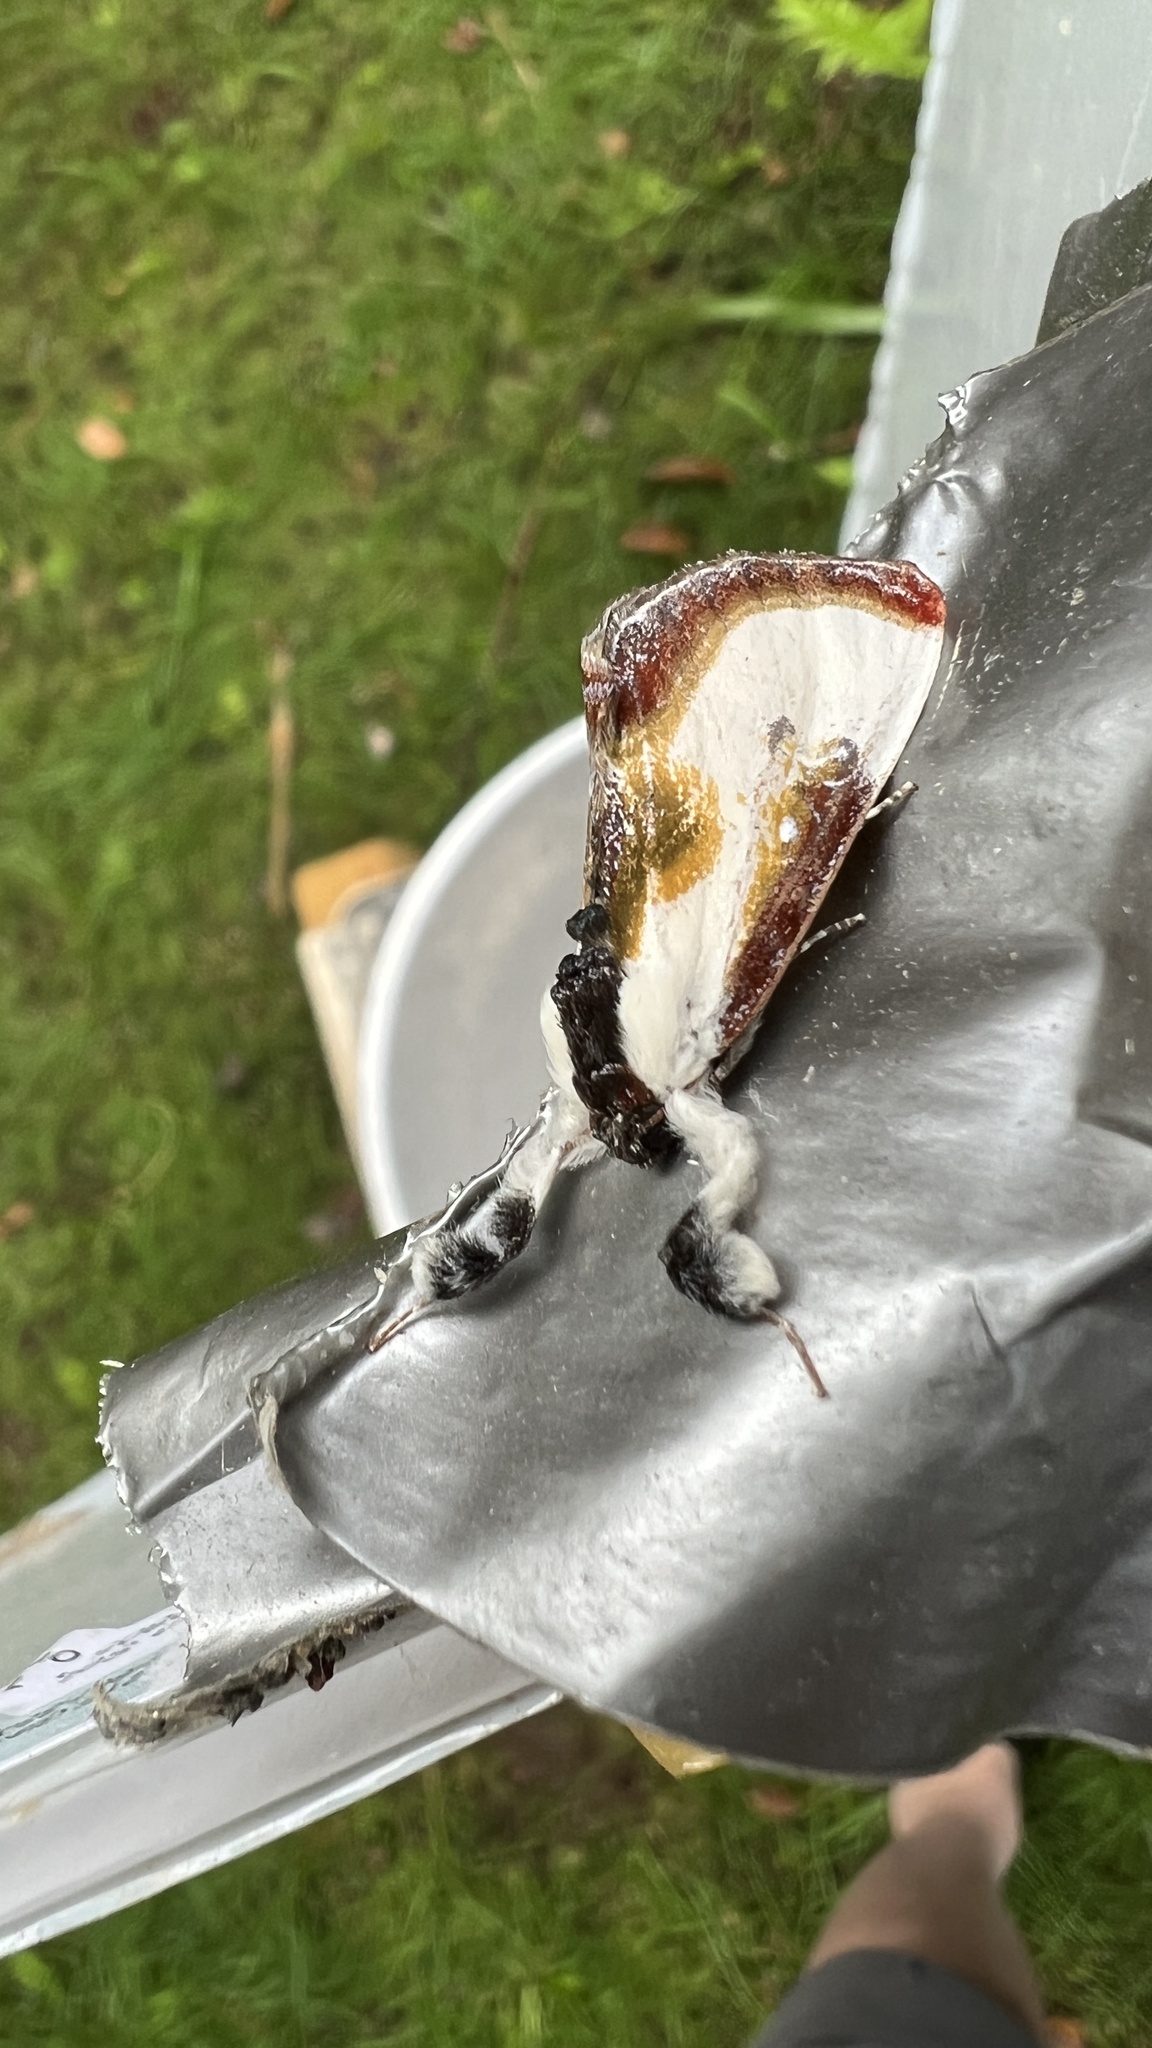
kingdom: Animalia
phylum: Arthropoda
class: Insecta
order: Lepidoptera
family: Noctuidae
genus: Eudryas
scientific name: Eudryas grata
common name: Beautiful wood-nymph
